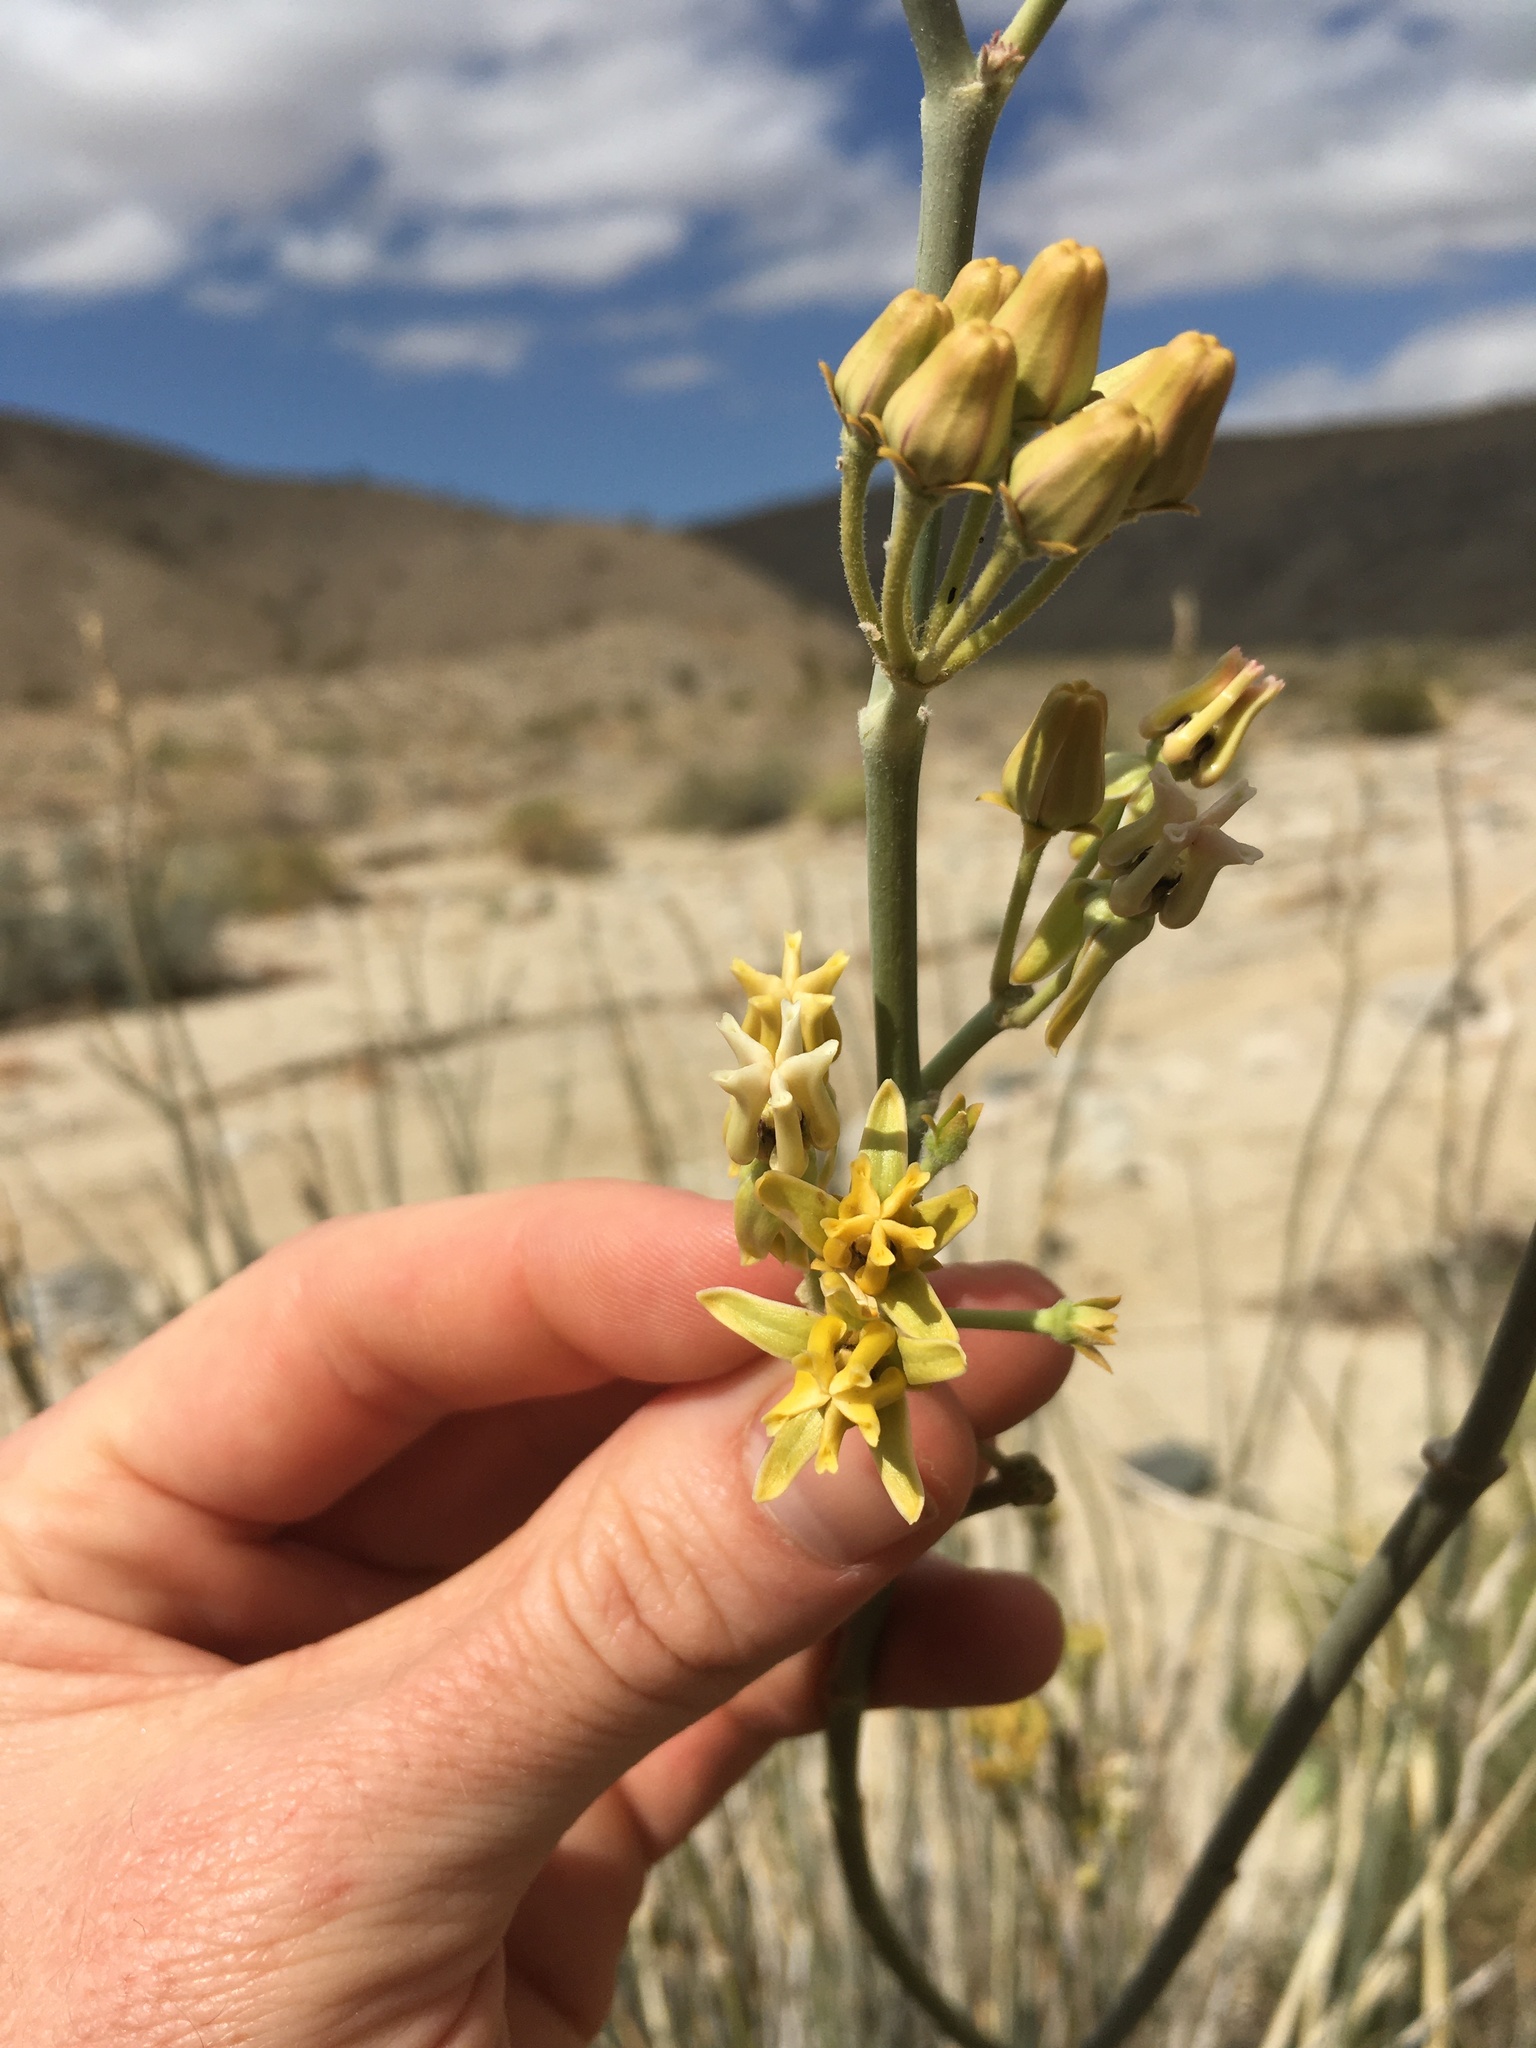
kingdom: Plantae
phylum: Tracheophyta
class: Magnoliopsida
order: Gentianales
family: Apocynaceae
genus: Asclepias
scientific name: Asclepias subulata
